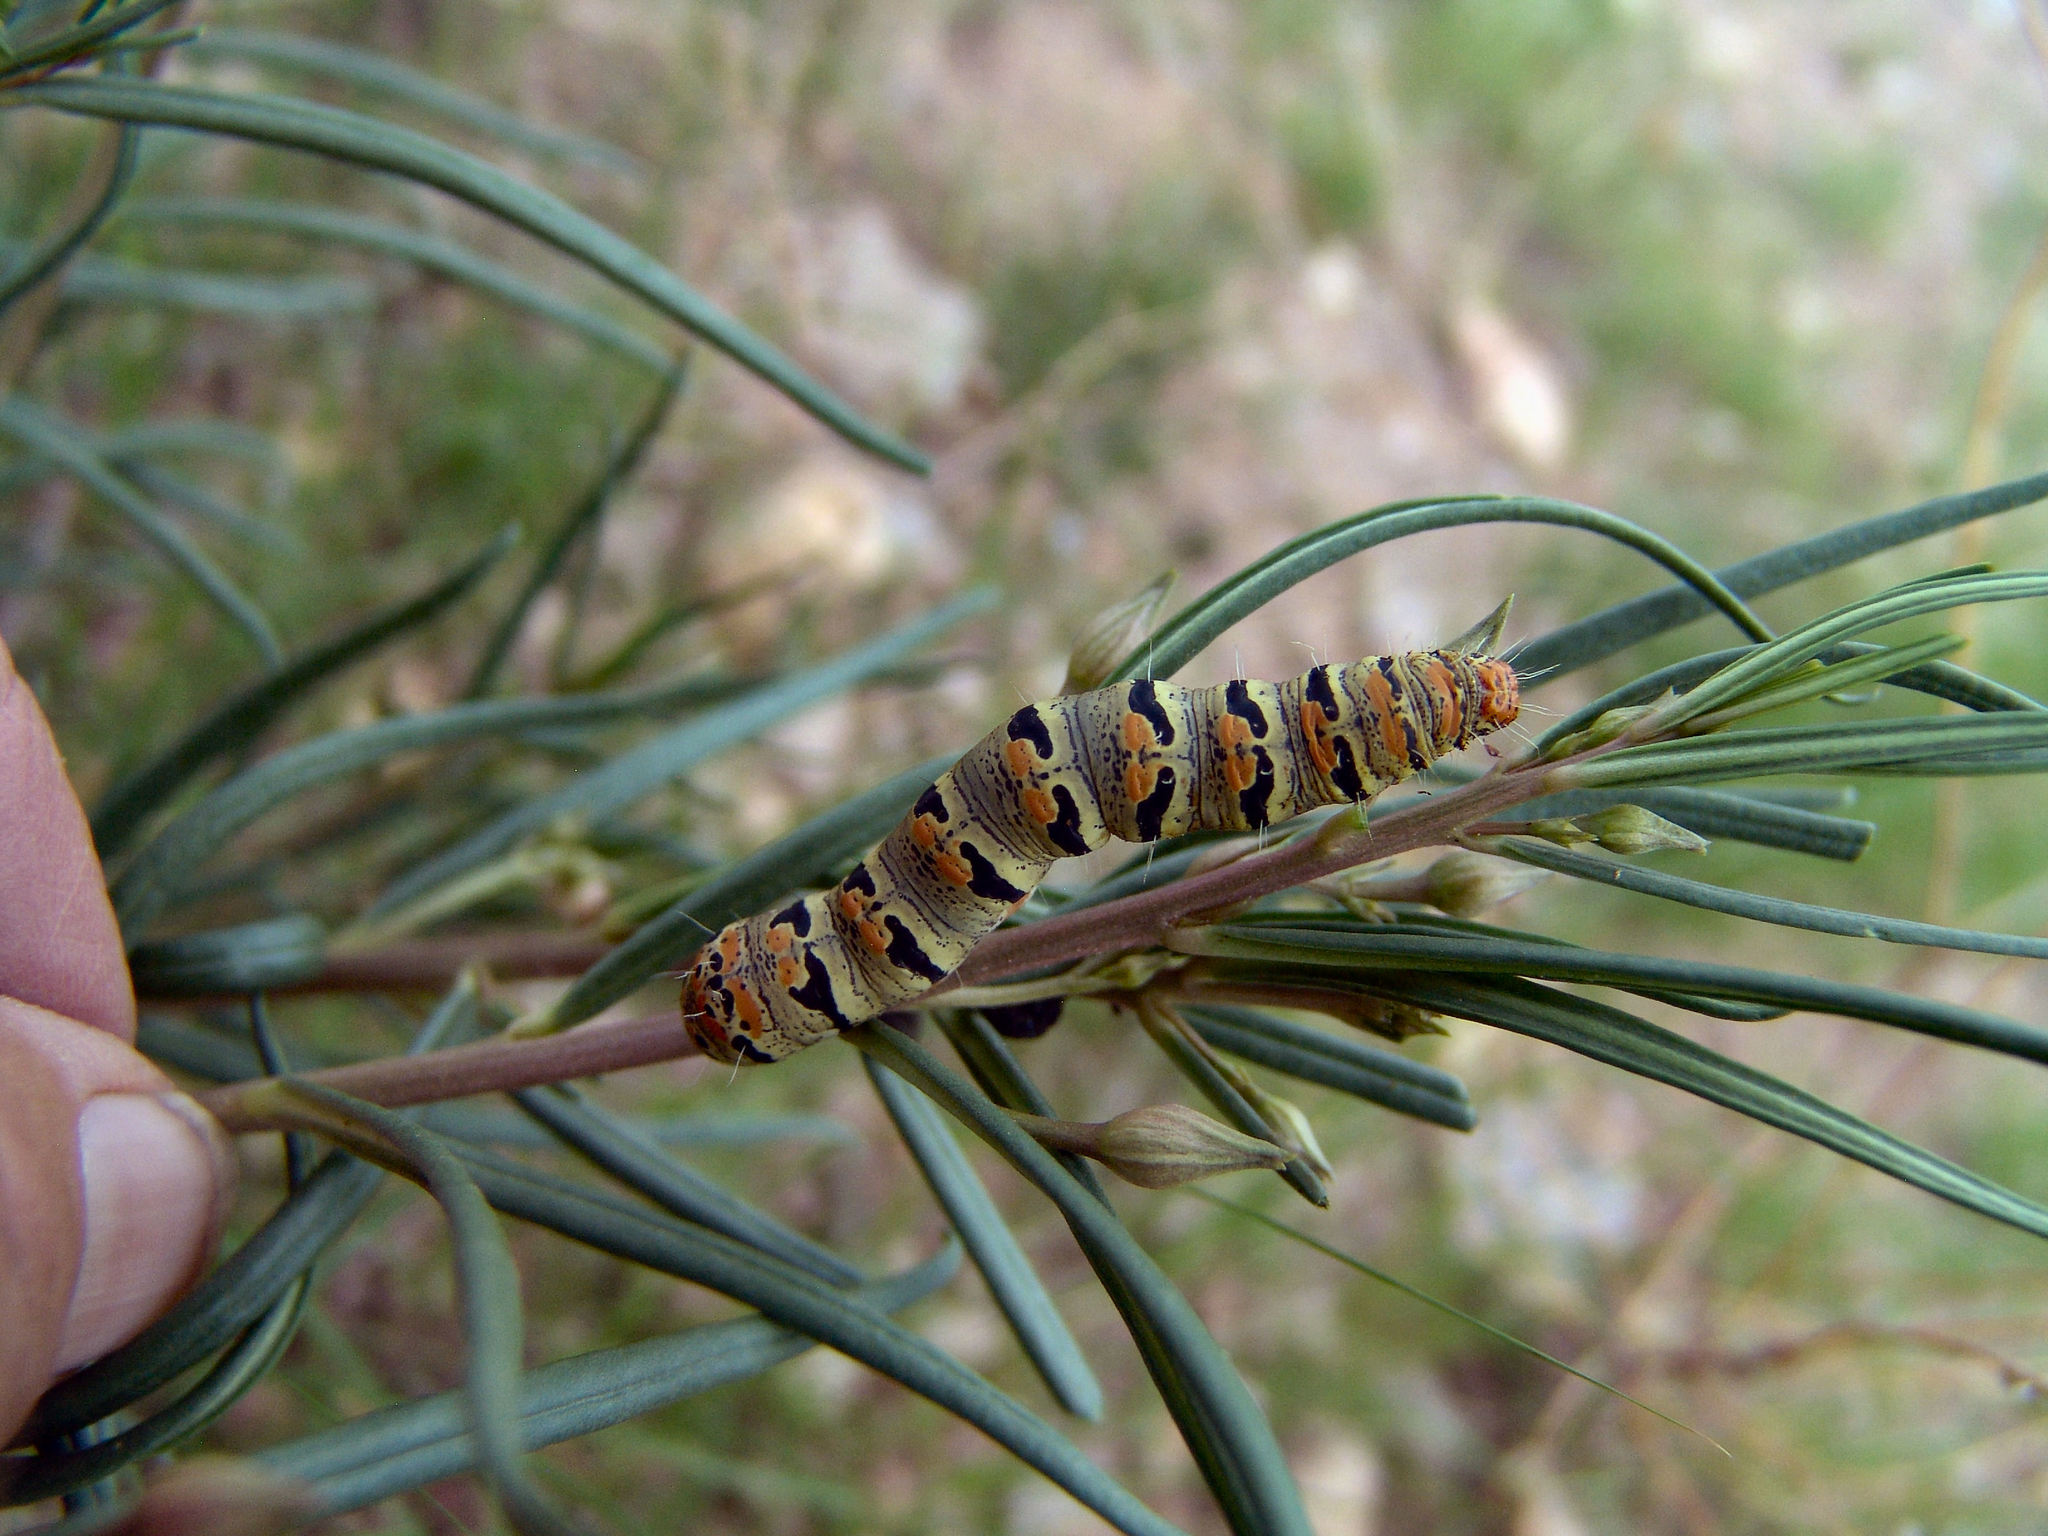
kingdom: Animalia
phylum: Arthropoda
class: Insecta
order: Lepidoptera
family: Noctuidae
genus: Euscirrhopterus
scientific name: Euscirrhopterus gloveri
